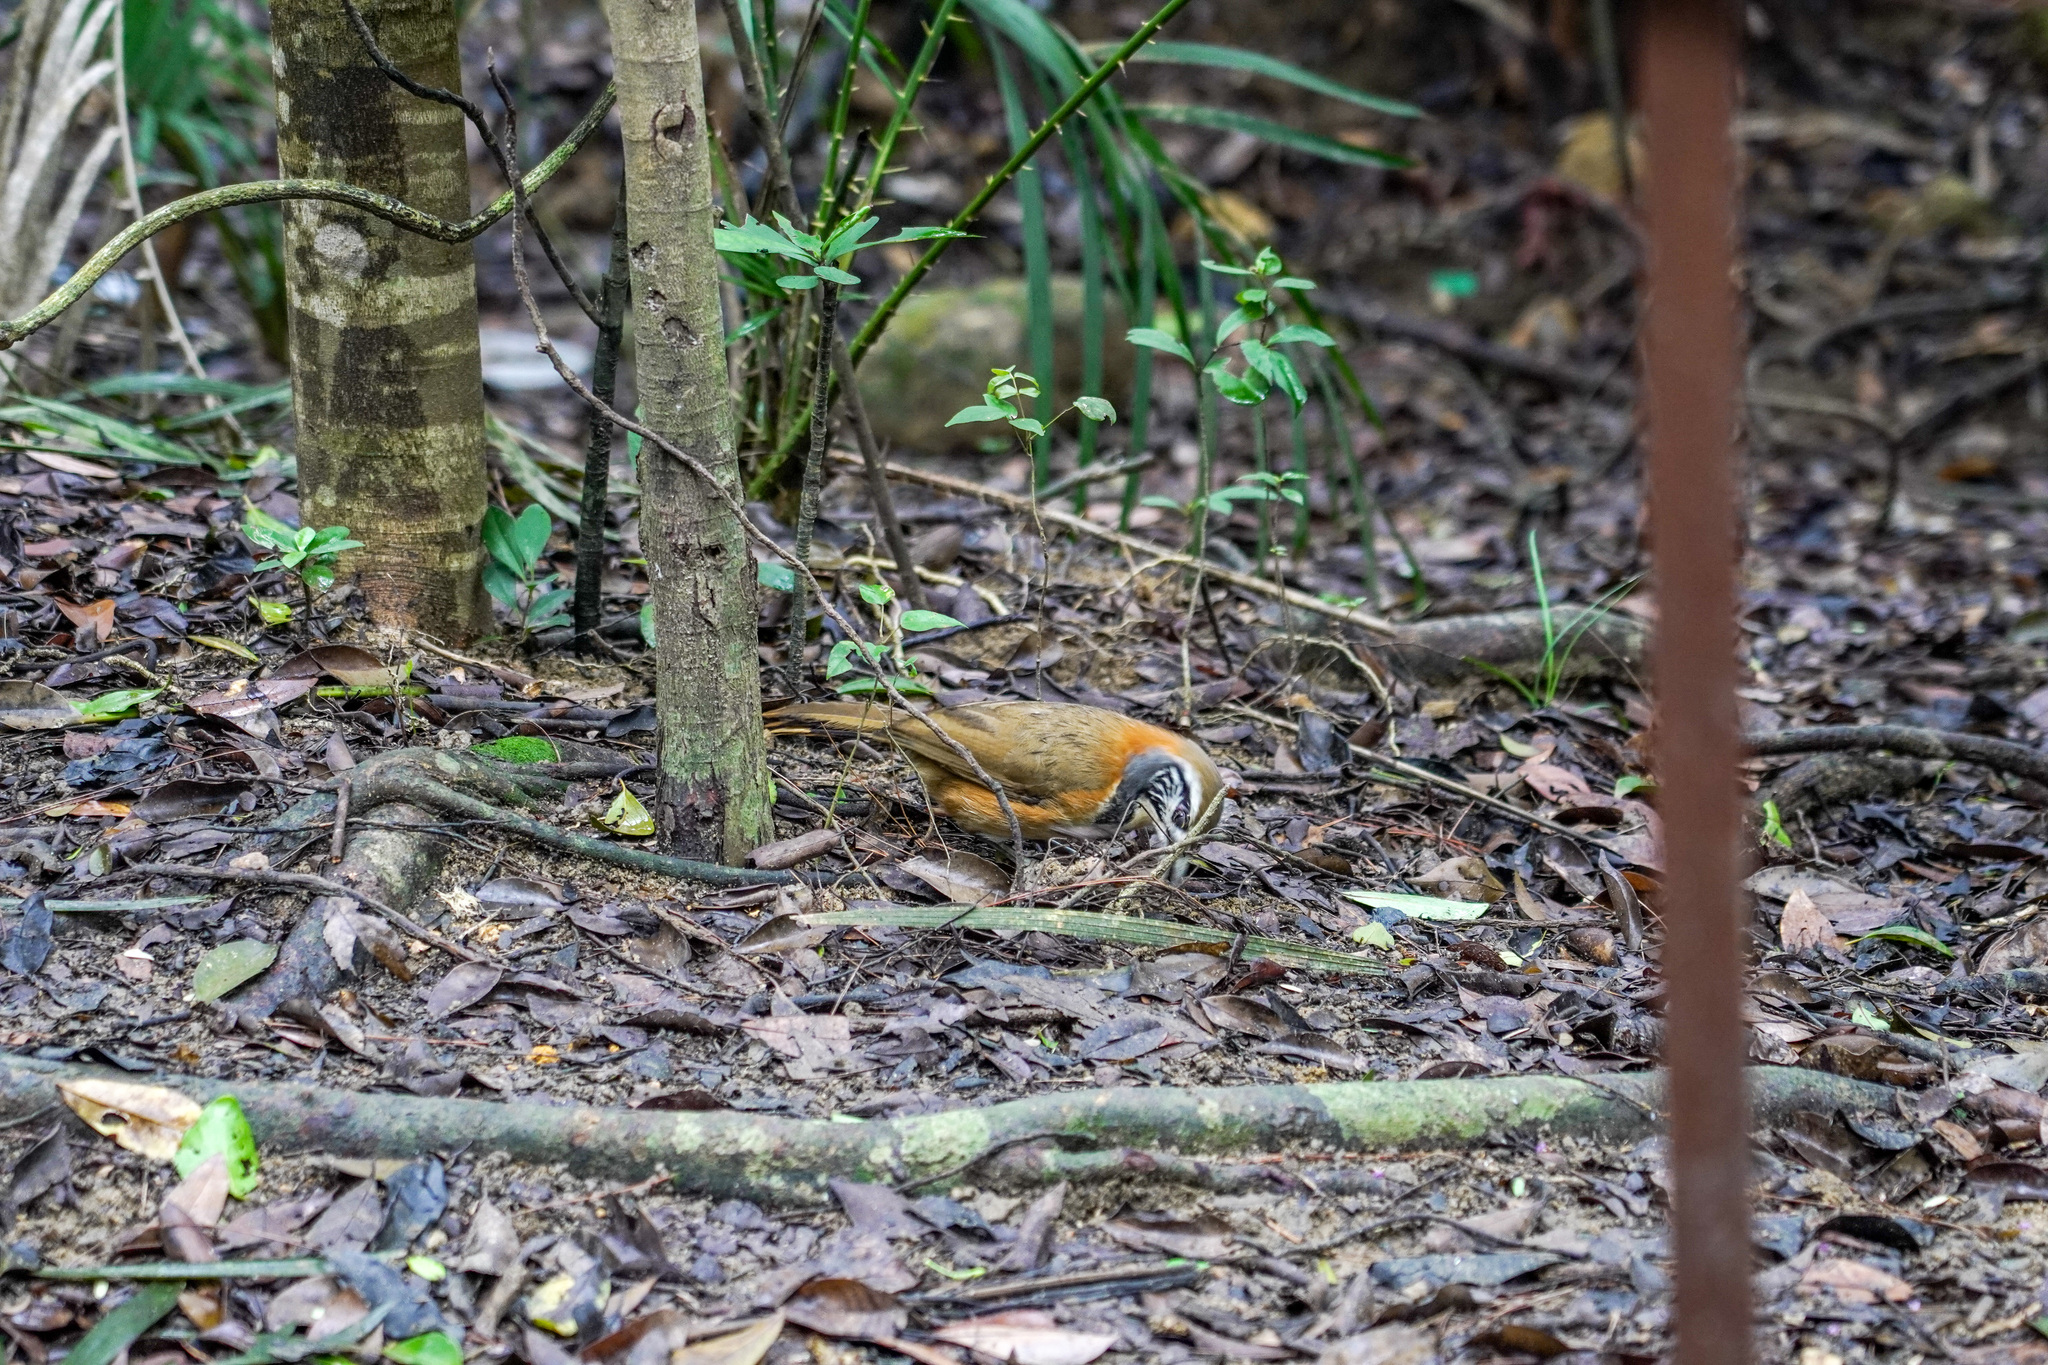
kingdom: Animalia
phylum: Chordata
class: Aves
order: Passeriformes
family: Leiothrichidae
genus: Garrulax
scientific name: Garrulax pectoralis
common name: Greater necklaced laughingthrush
